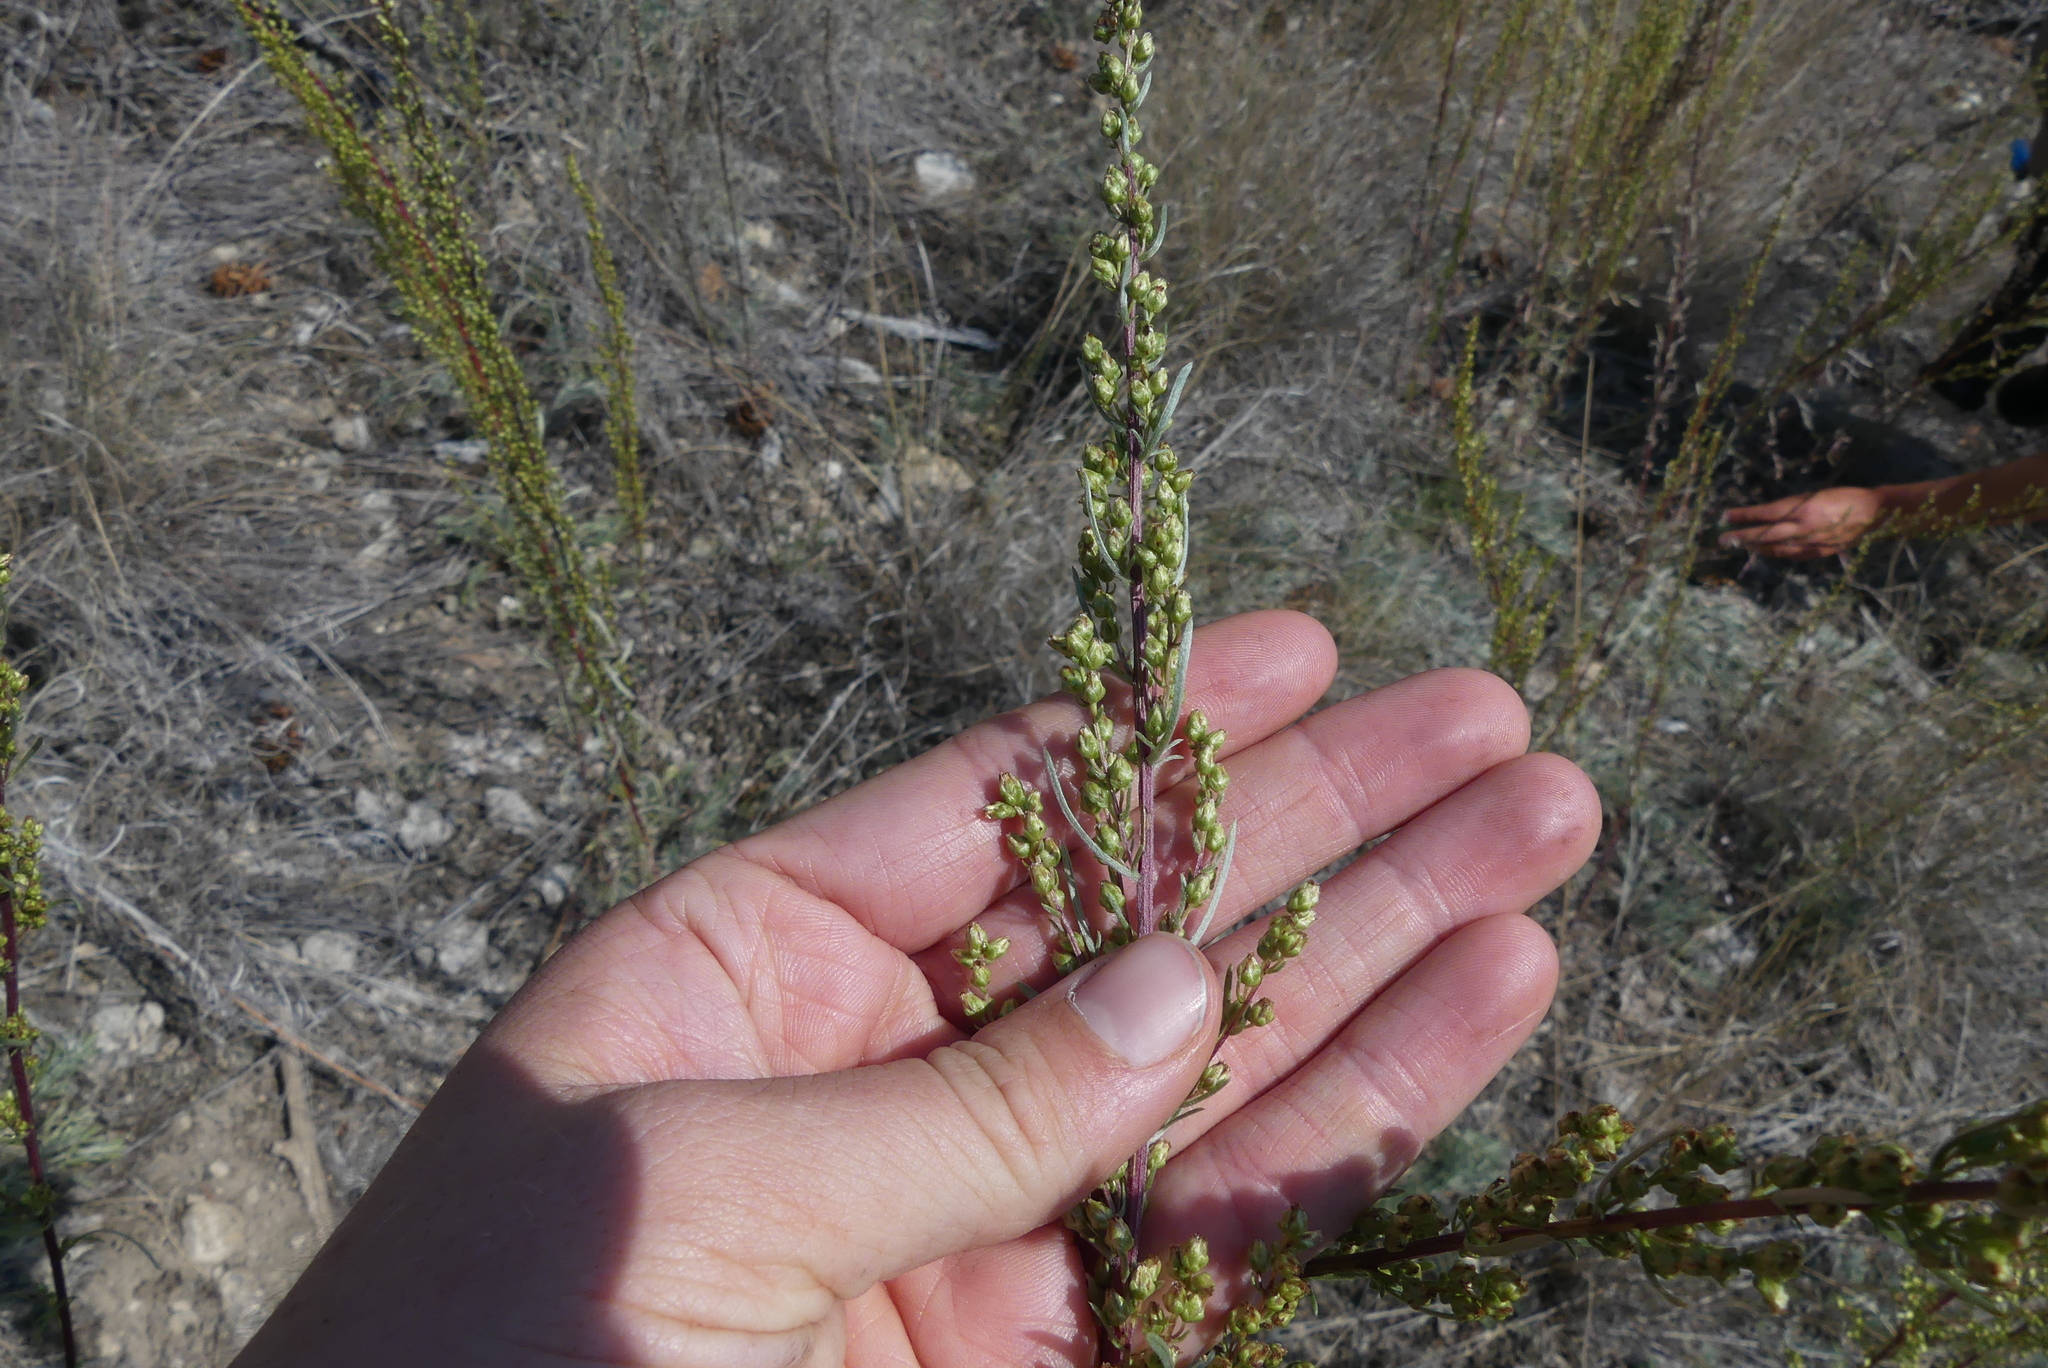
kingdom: Plantae
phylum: Tracheophyta
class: Magnoliopsida
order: Asterales
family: Asteraceae
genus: Artemisia
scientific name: Artemisia campestris
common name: Field wormwood
